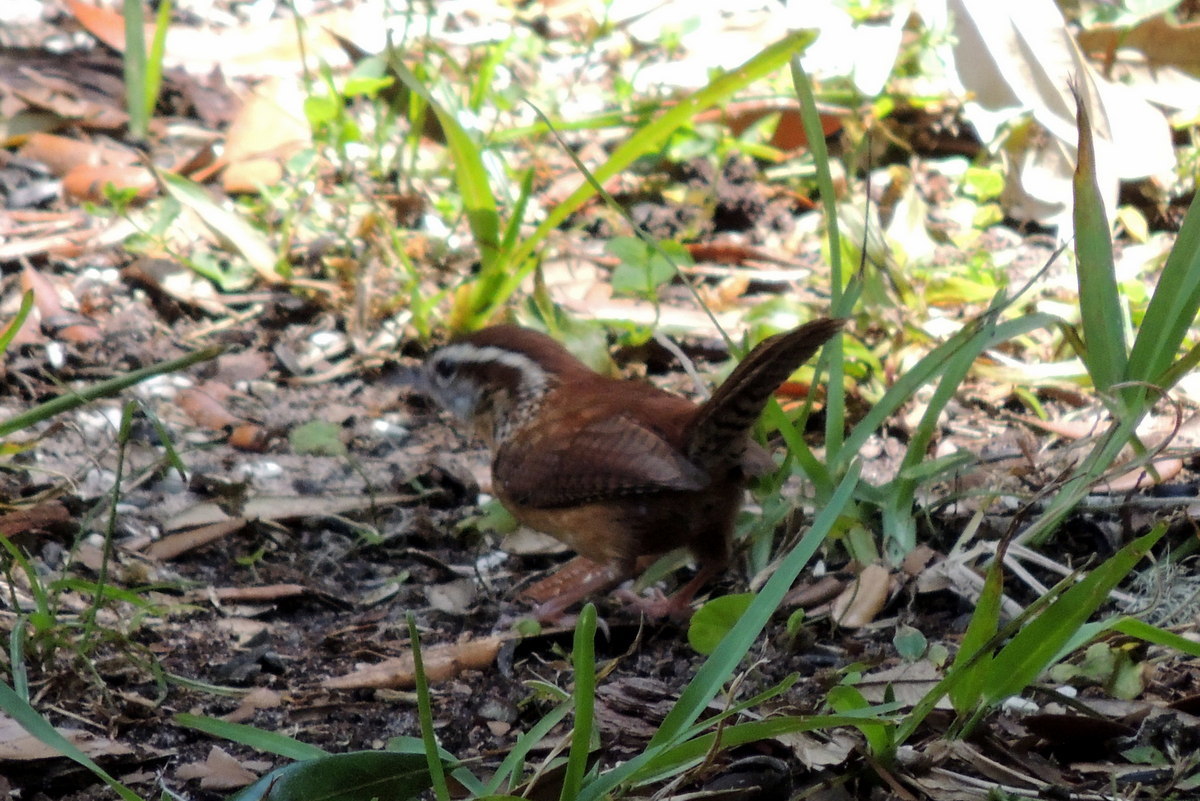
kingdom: Animalia
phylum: Chordata
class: Aves
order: Passeriformes
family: Troglodytidae
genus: Thryothorus
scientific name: Thryothorus ludovicianus
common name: Carolina wren
